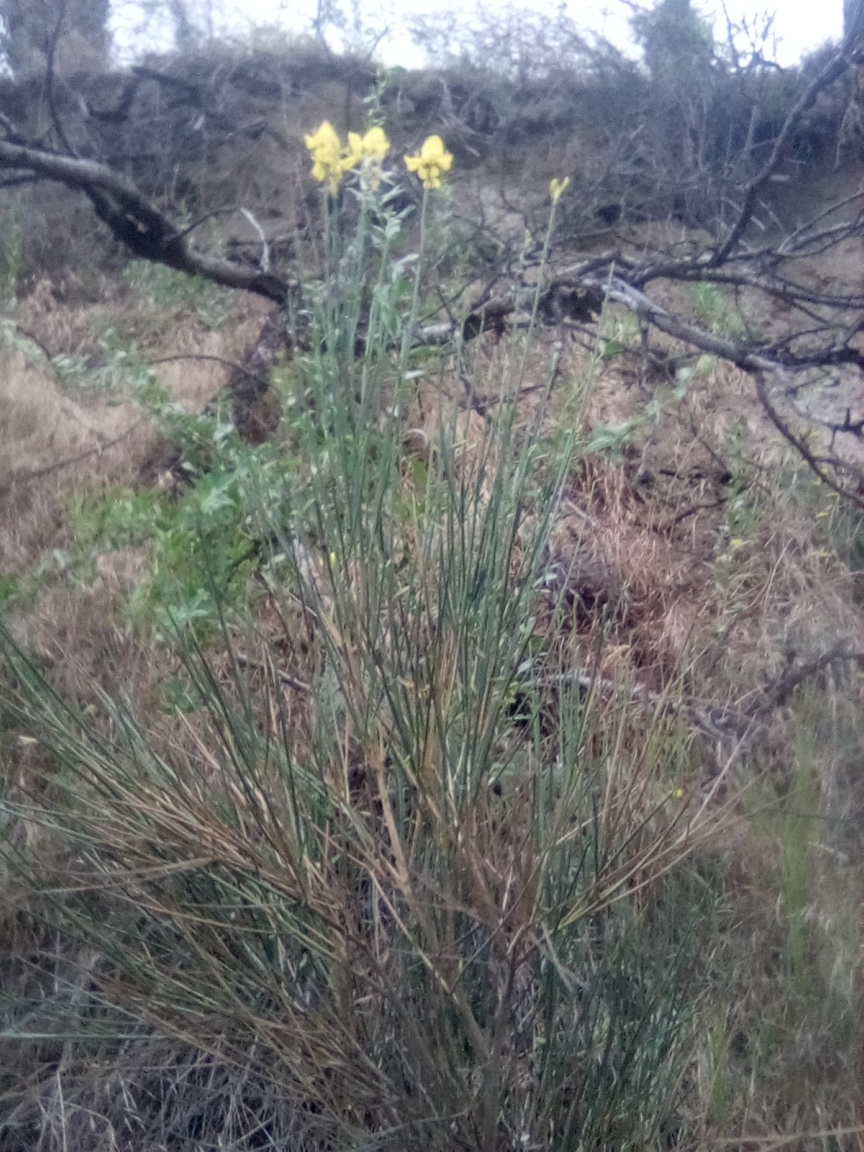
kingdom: Plantae
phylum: Tracheophyta
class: Magnoliopsida
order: Fabales
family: Fabaceae
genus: Spartium
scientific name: Spartium junceum
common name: Spanish broom
